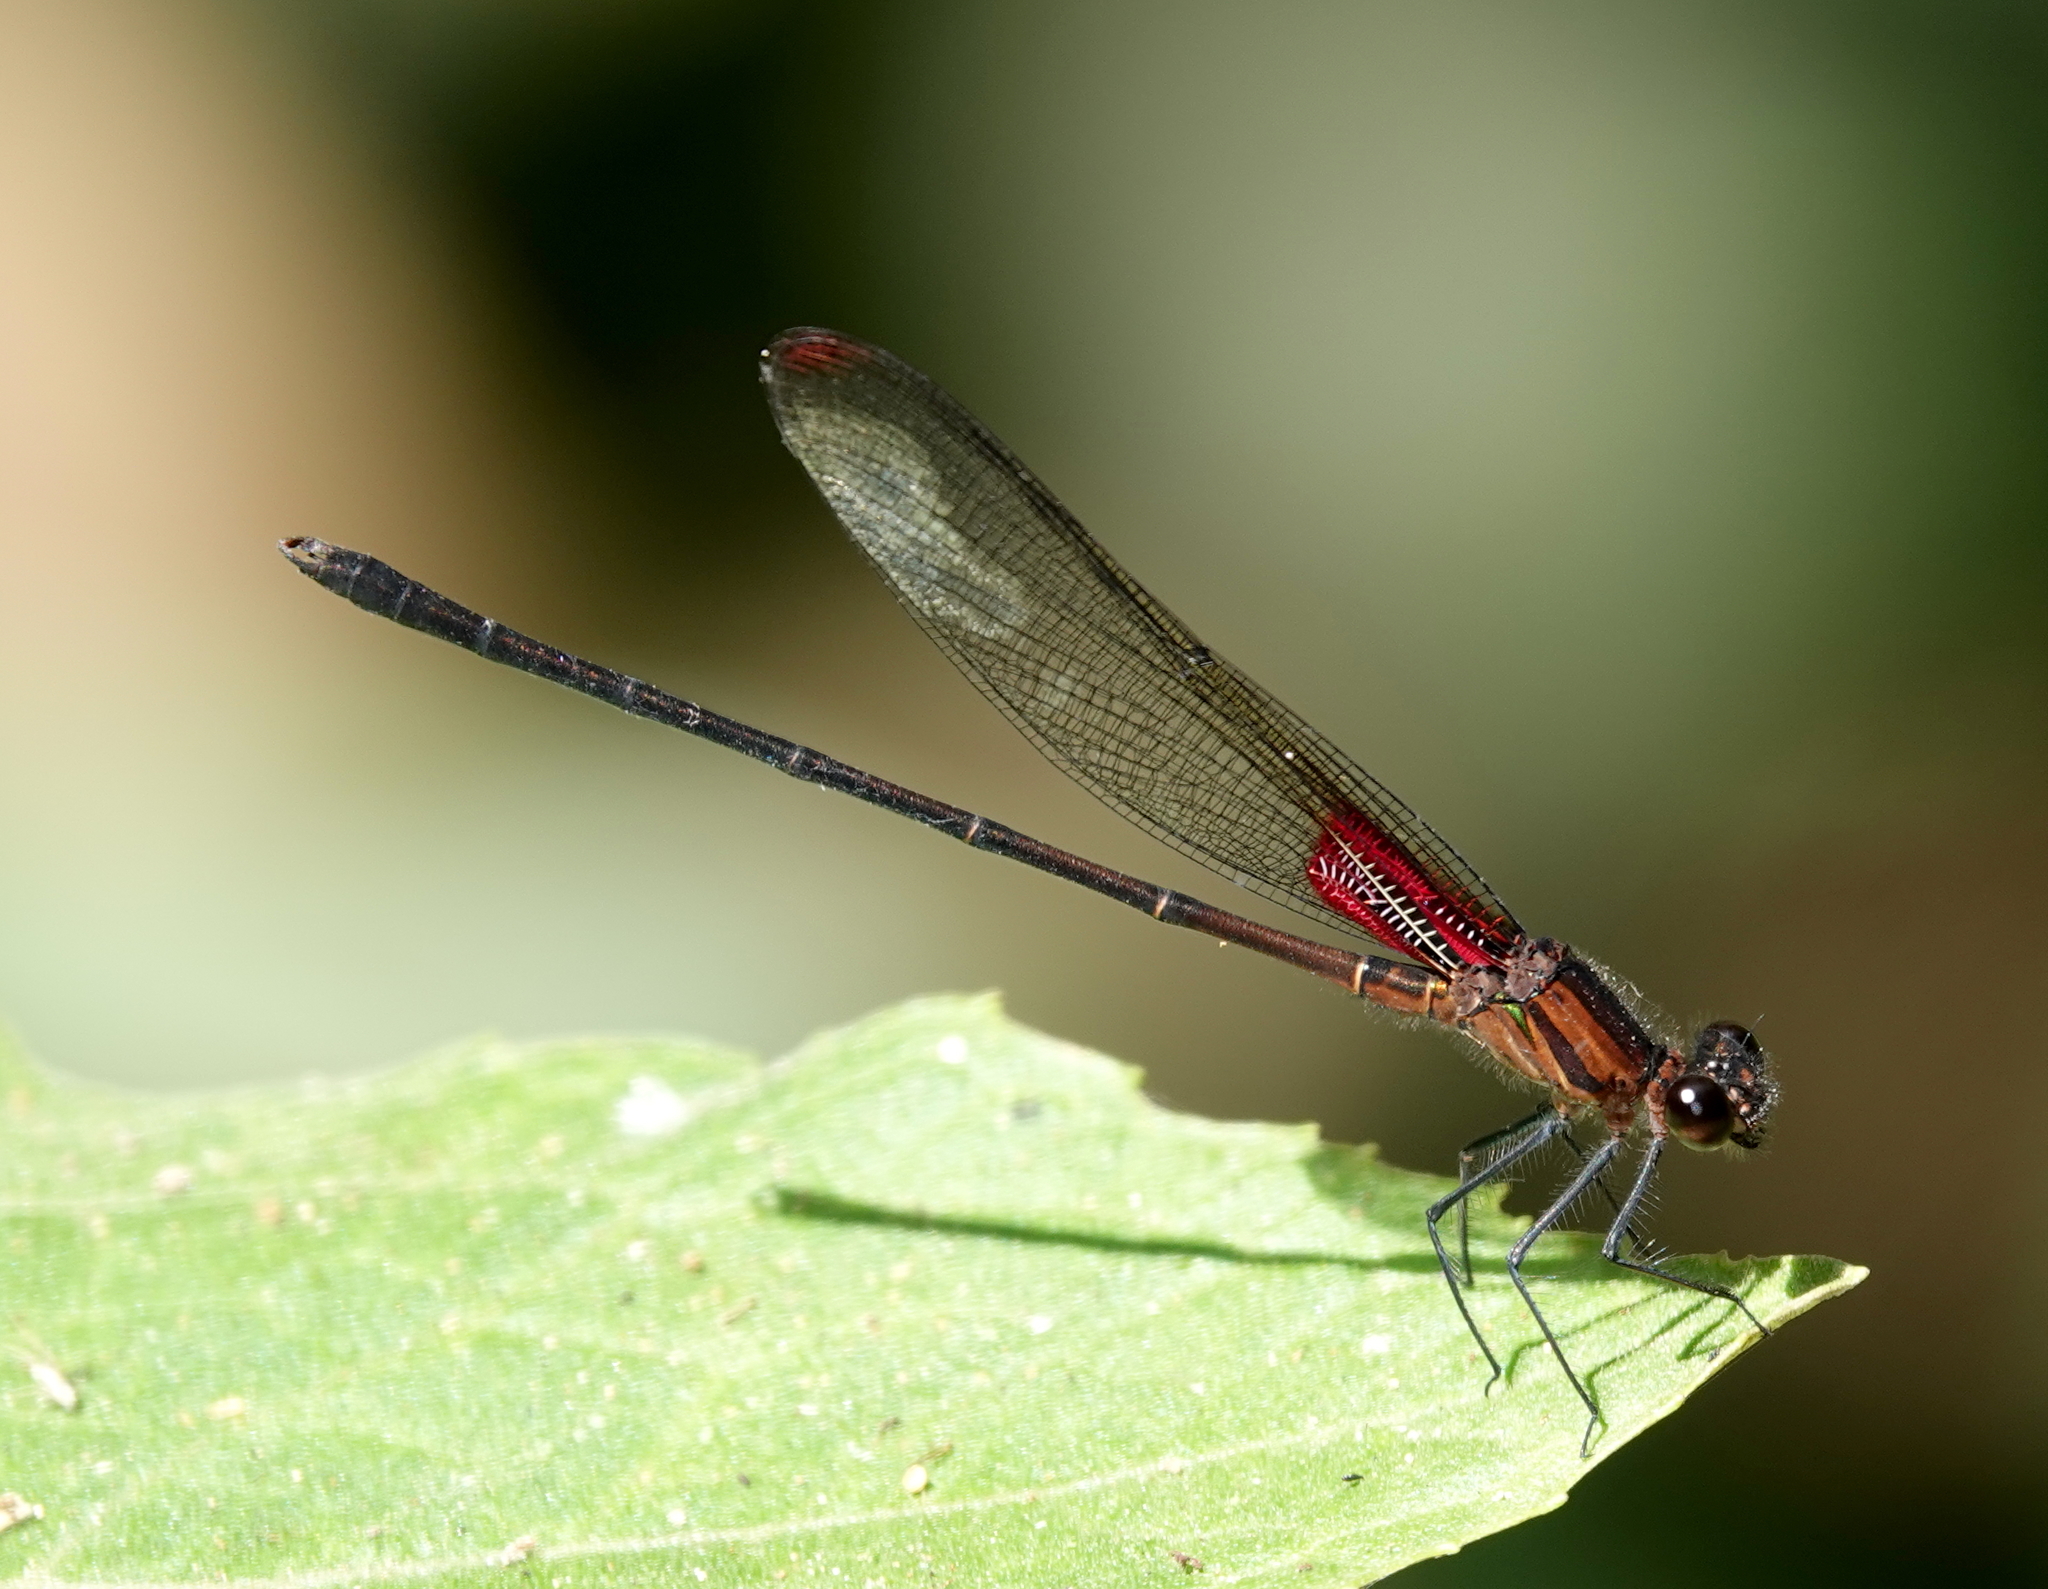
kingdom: Animalia
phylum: Arthropoda
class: Insecta
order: Odonata
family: Calopterygidae
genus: Hetaerina
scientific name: Hetaerina cruentata
